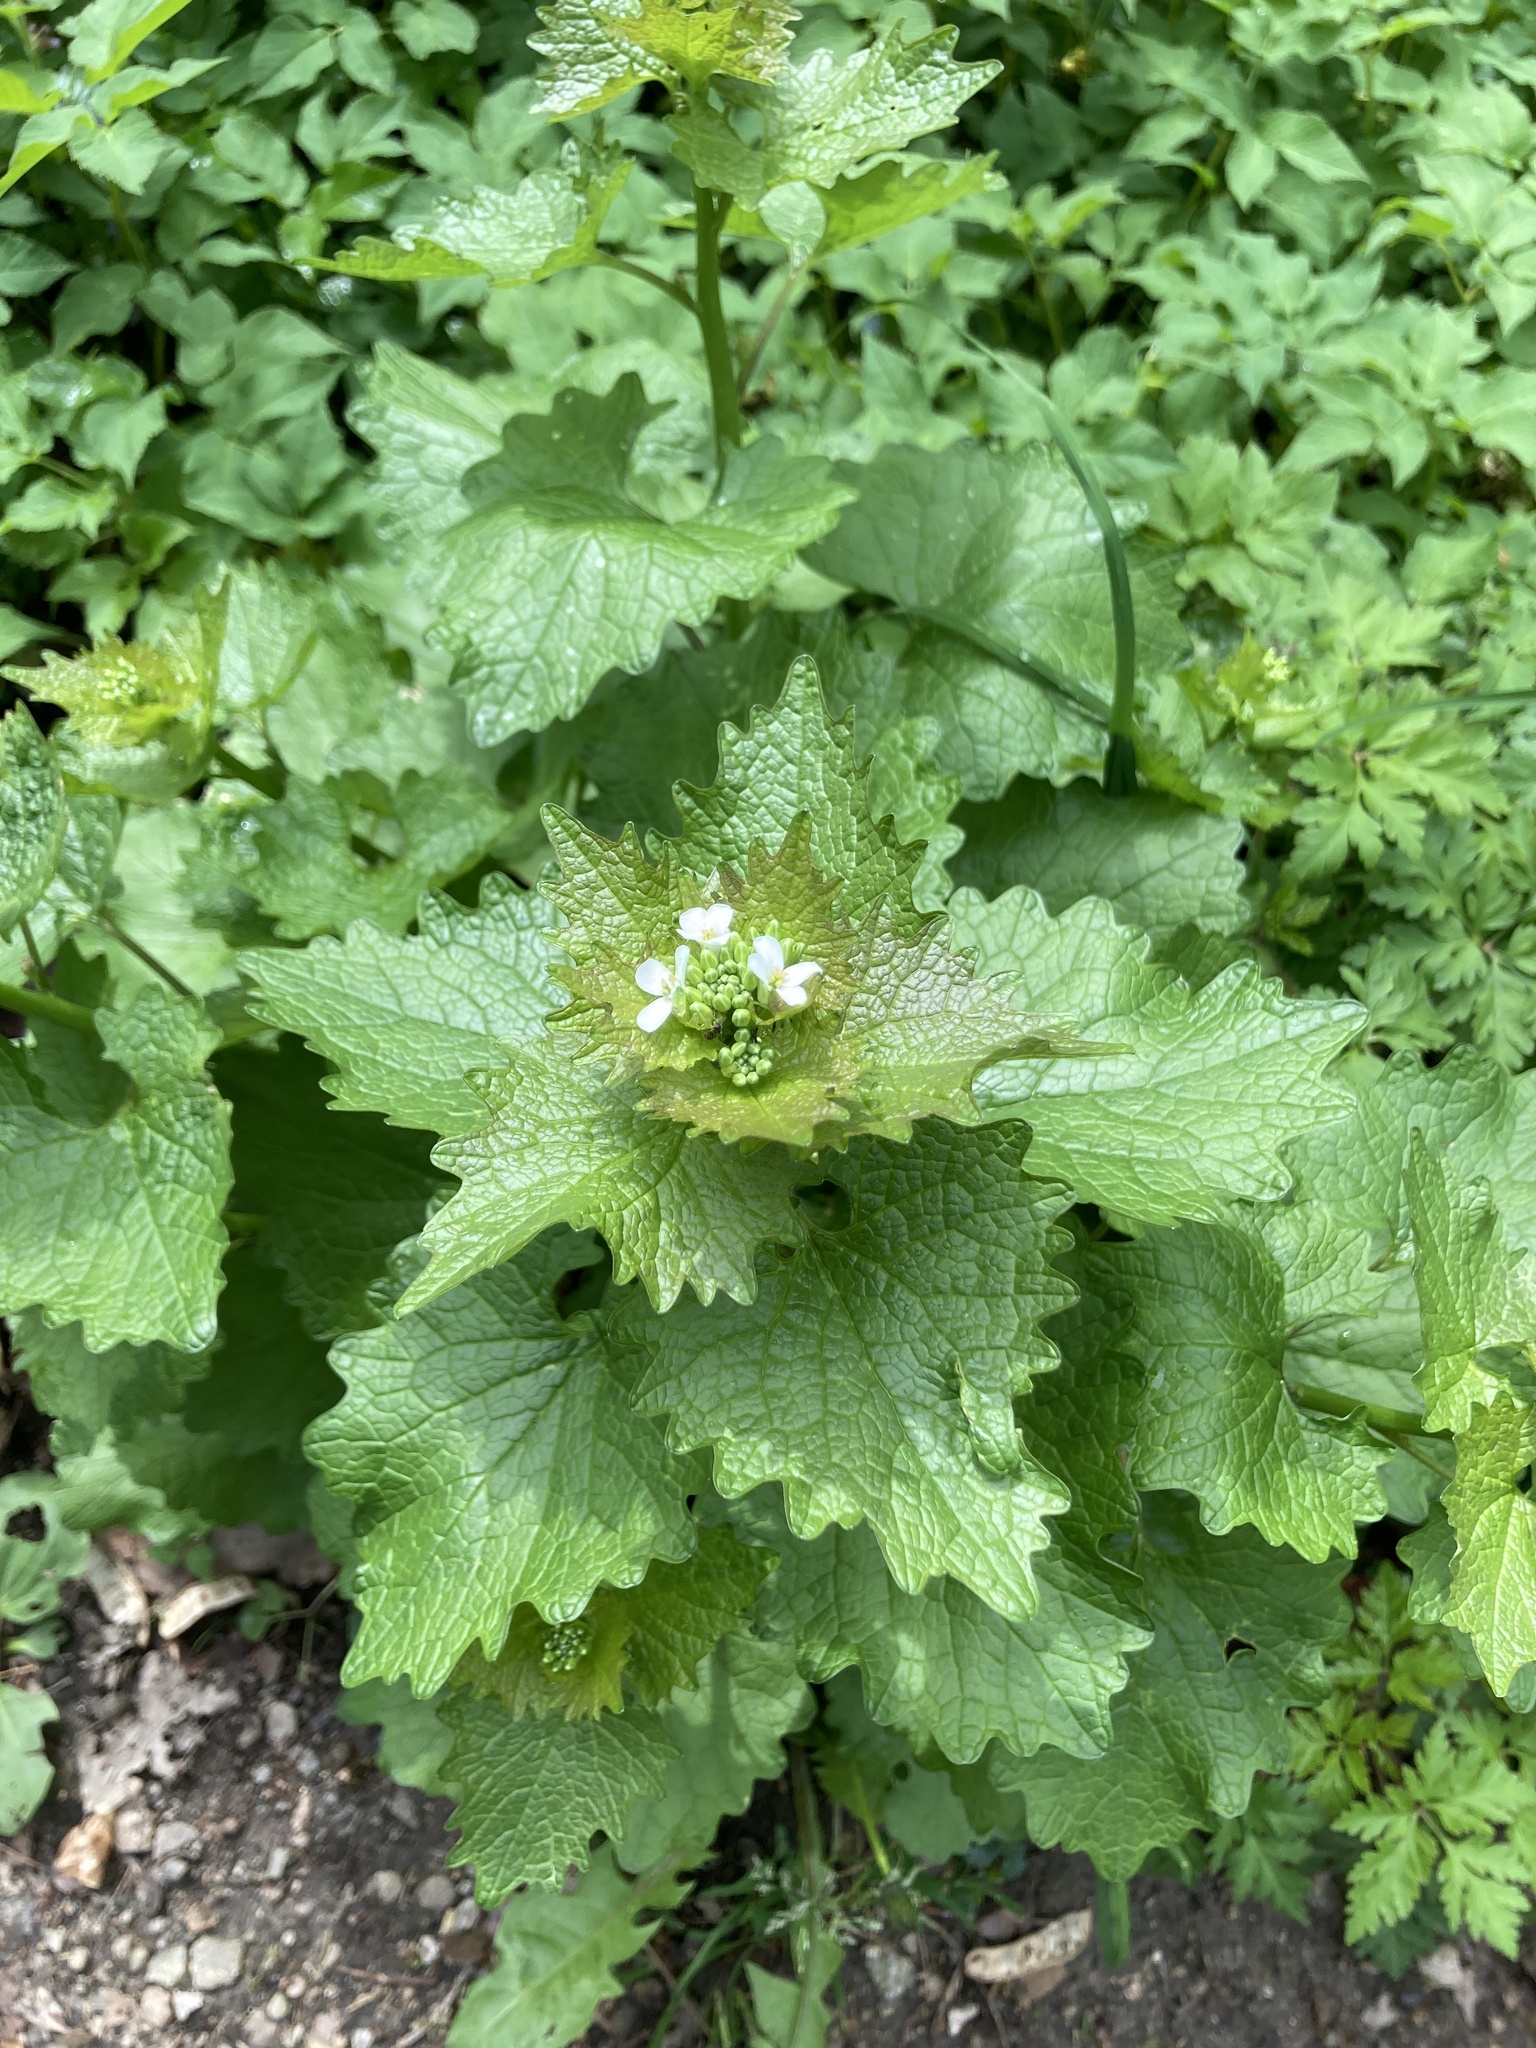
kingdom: Plantae
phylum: Tracheophyta
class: Magnoliopsida
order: Brassicales
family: Brassicaceae
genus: Alliaria
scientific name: Alliaria petiolata
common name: Garlic mustard
